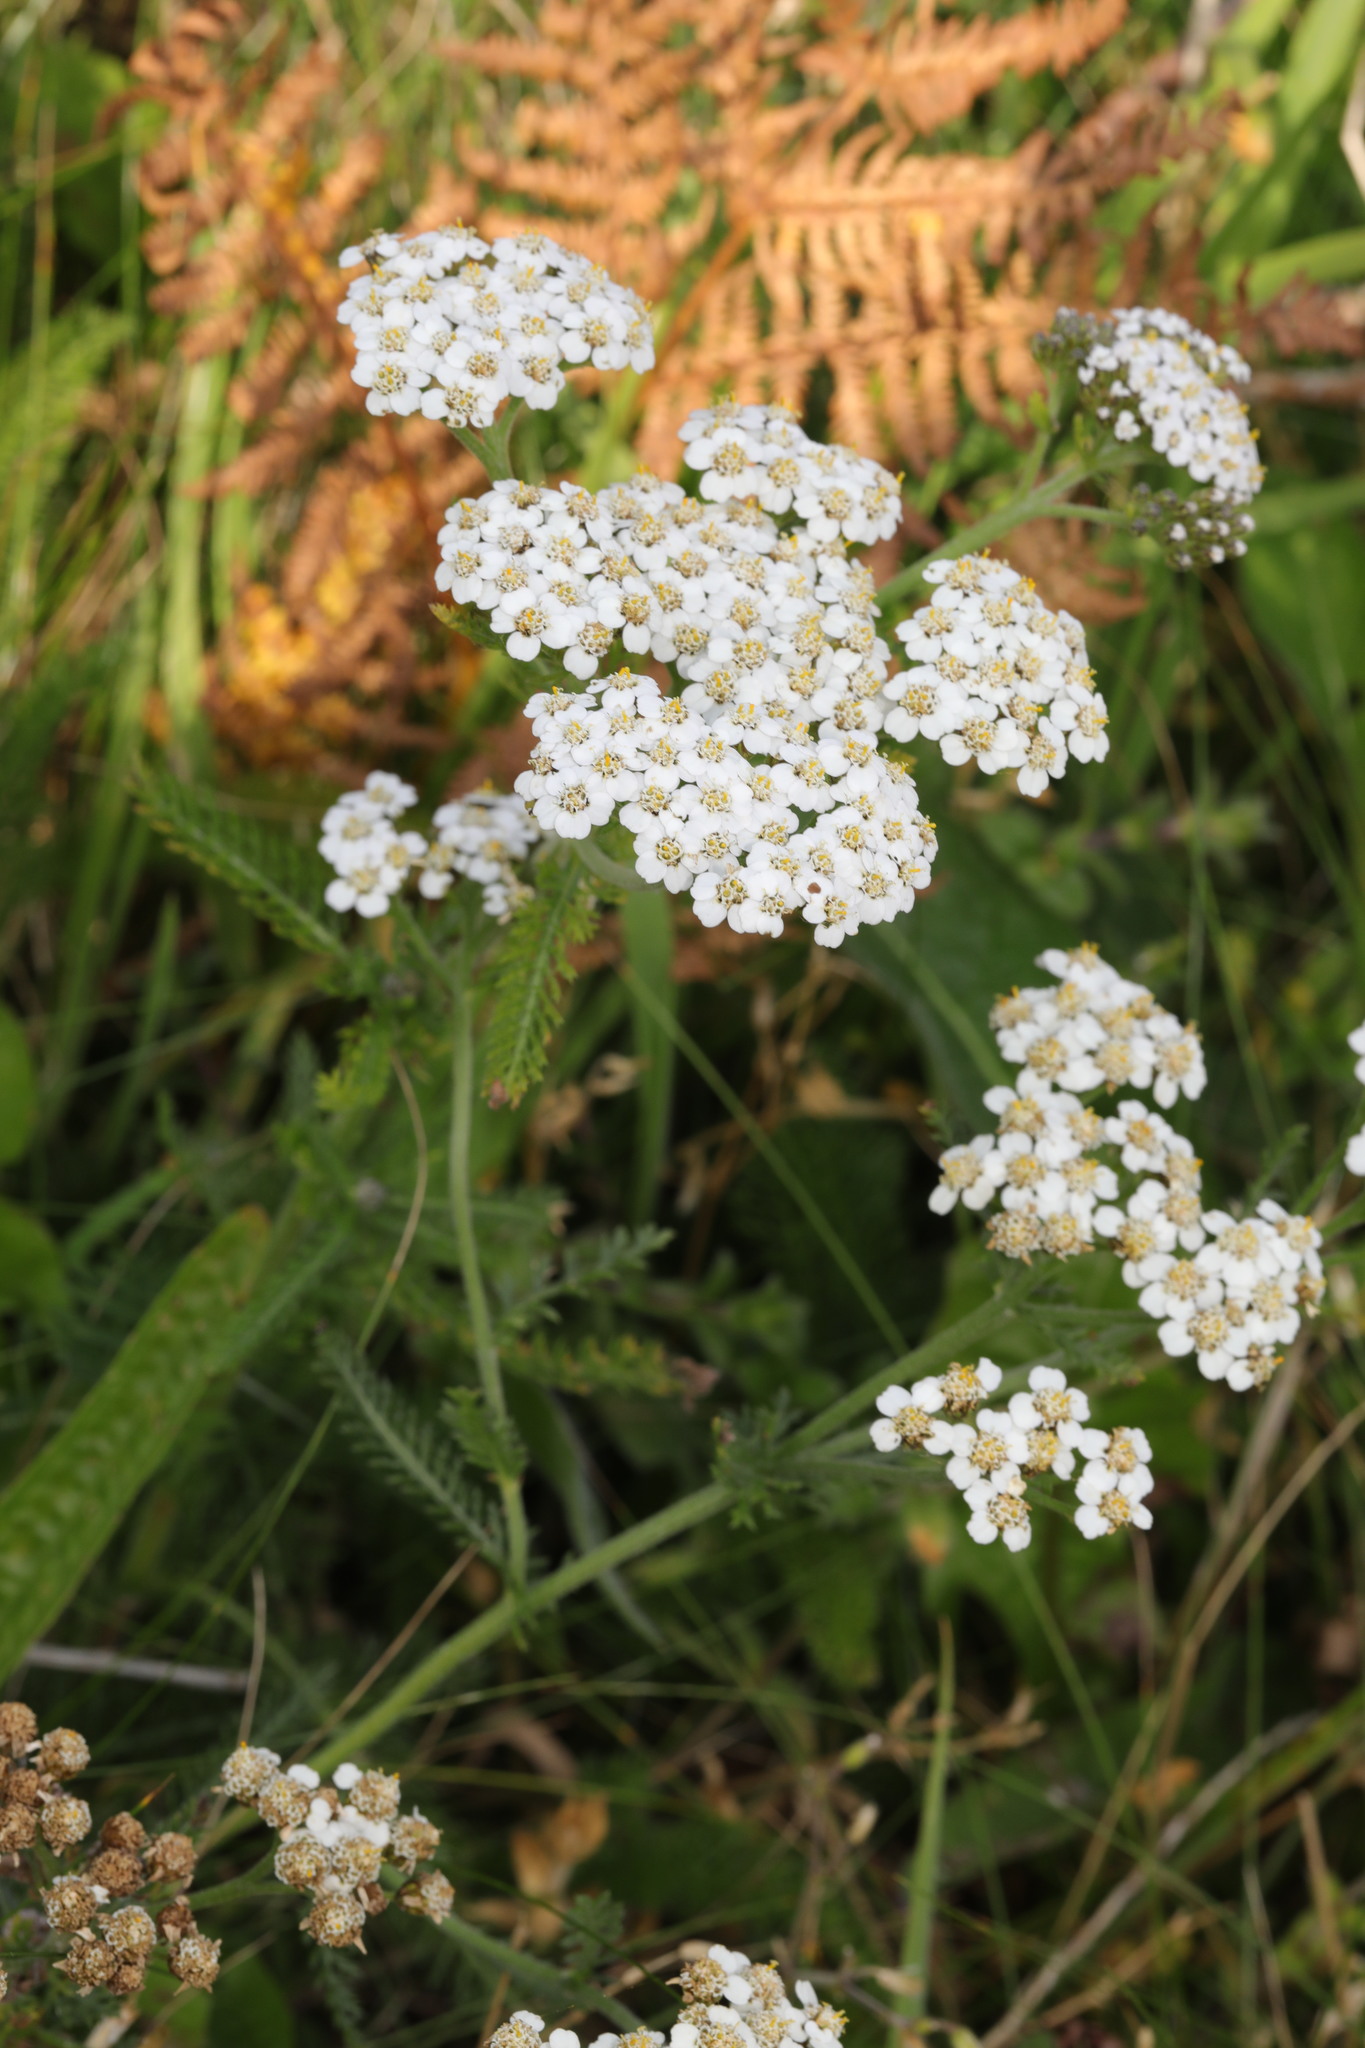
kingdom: Plantae
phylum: Tracheophyta
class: Magnoliopsida
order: Asterales
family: Asteraceae
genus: Achillea
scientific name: Achillea millefolium
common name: Yarrow
